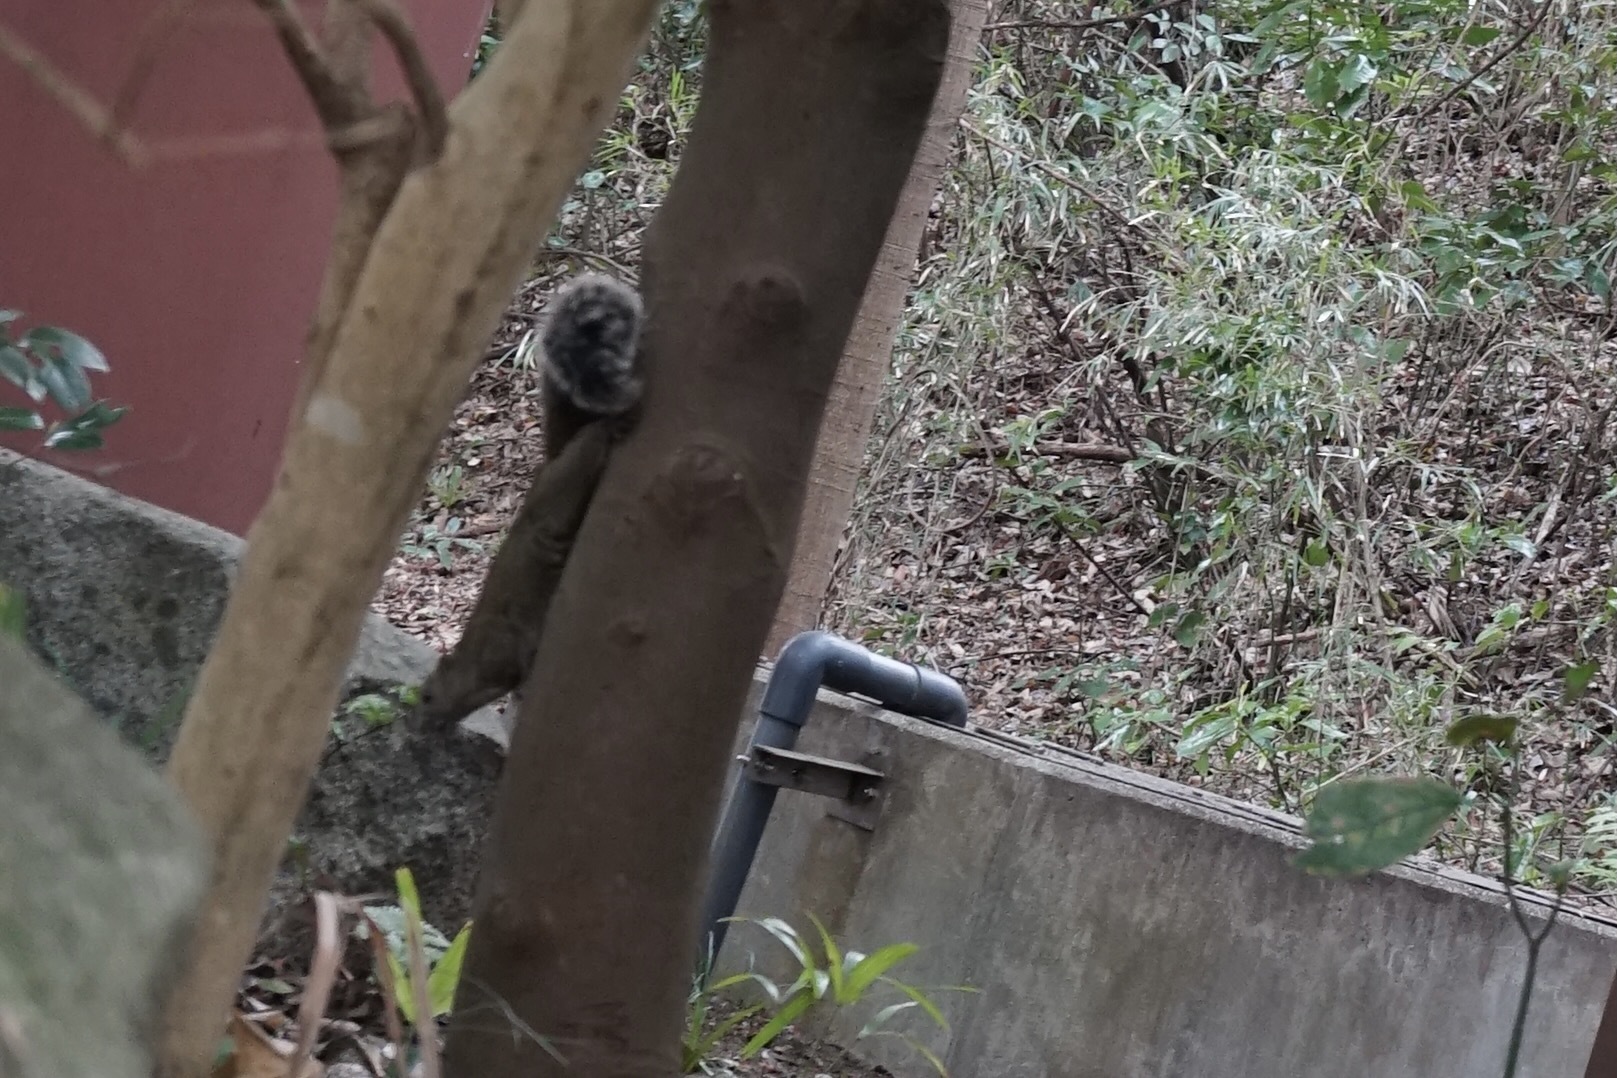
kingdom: Animalia
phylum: Chordata
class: Mammalia
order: Rodentia
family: Sciuridae
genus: Callosciurus
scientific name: Callosciurus erythraeus
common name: Pallas's squirrel
